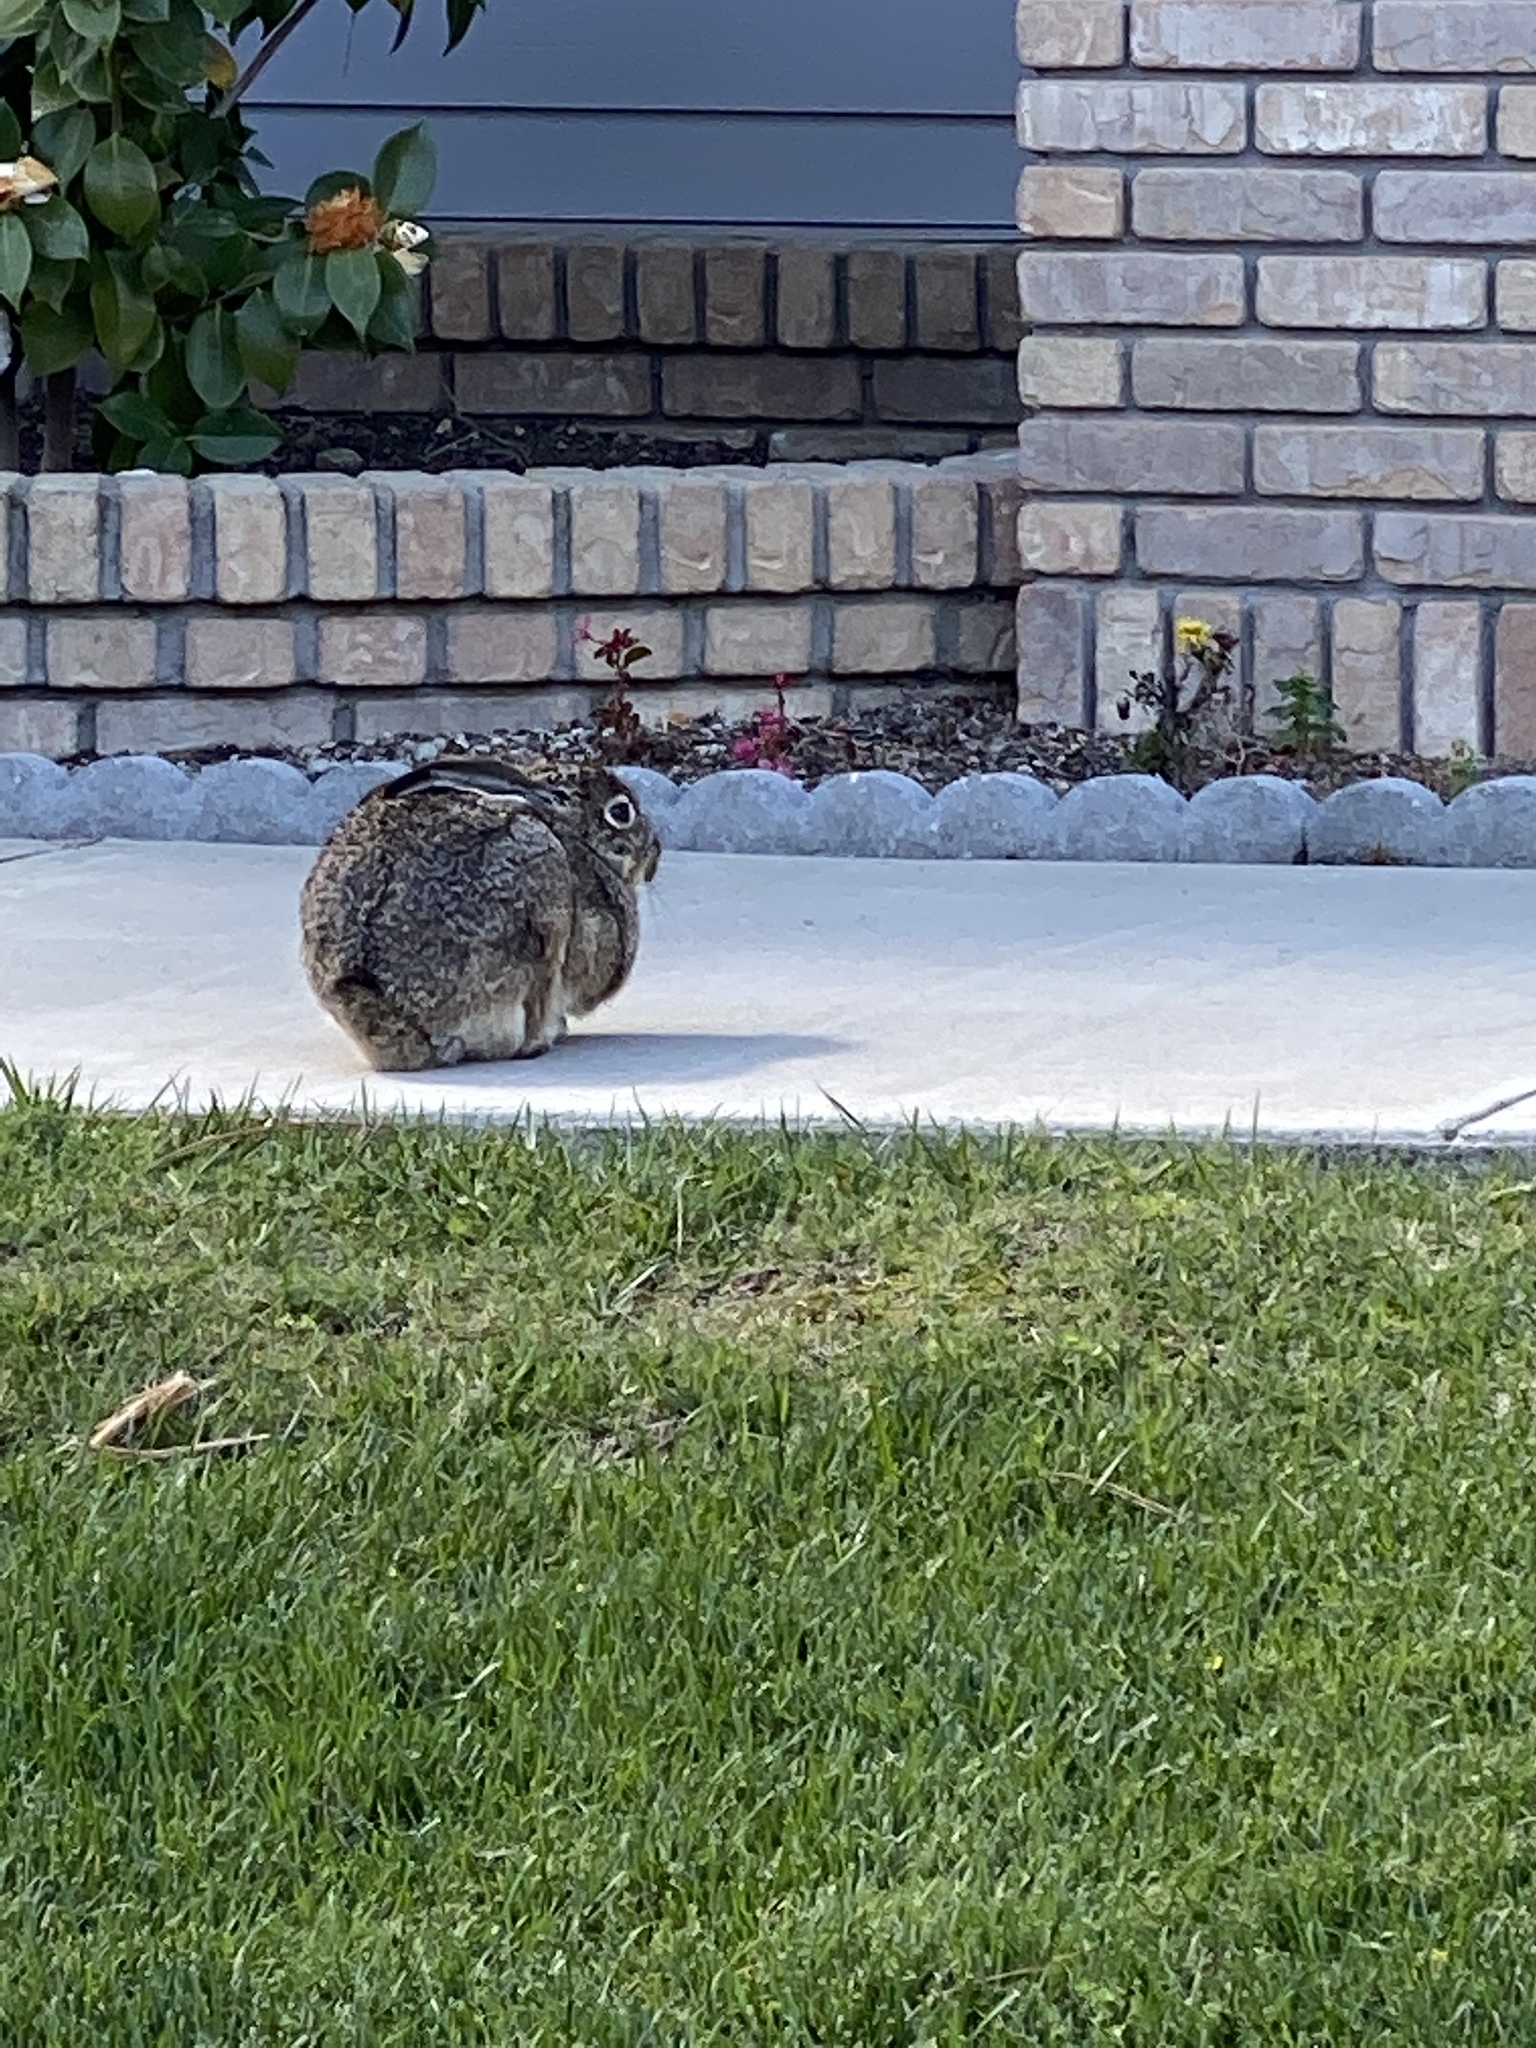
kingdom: Animalia
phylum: Chordata
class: Mammalia
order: Lagomorpha
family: Leporidae
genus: Lepus
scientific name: Lepus californicus
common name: Black-tailed jackrabbit
